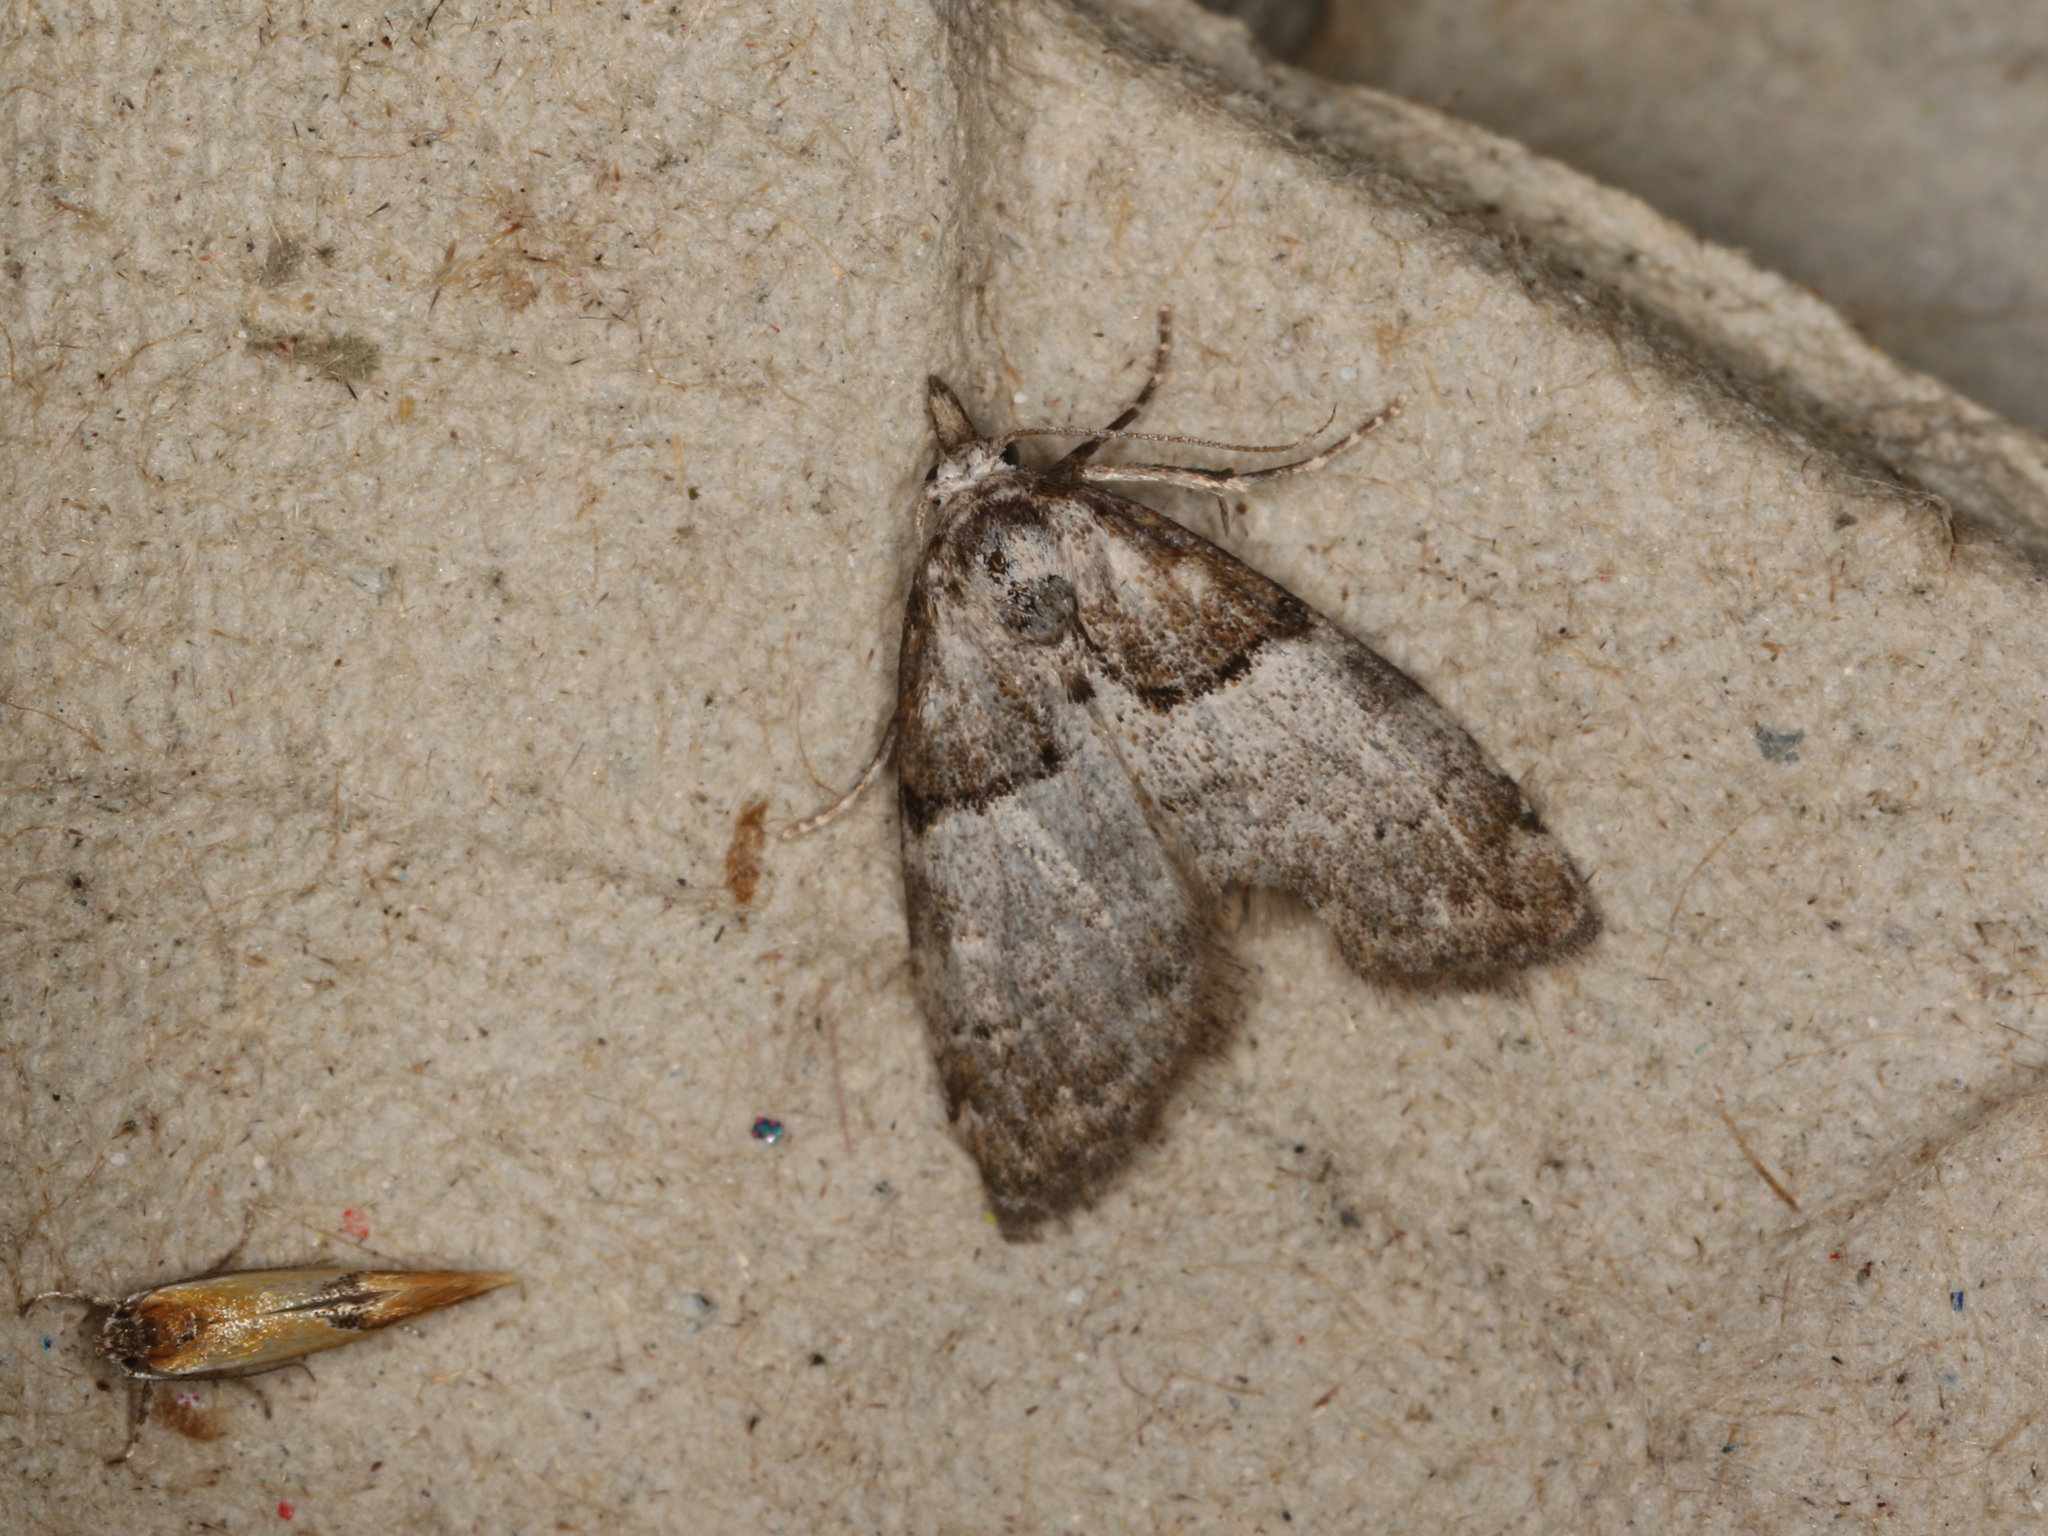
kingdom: Animalia
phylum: Arthropoda
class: Insecta
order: Lepidoptera
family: Nolidae
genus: Nola
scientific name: Nola cucullatella
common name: Short-cloaked moth
